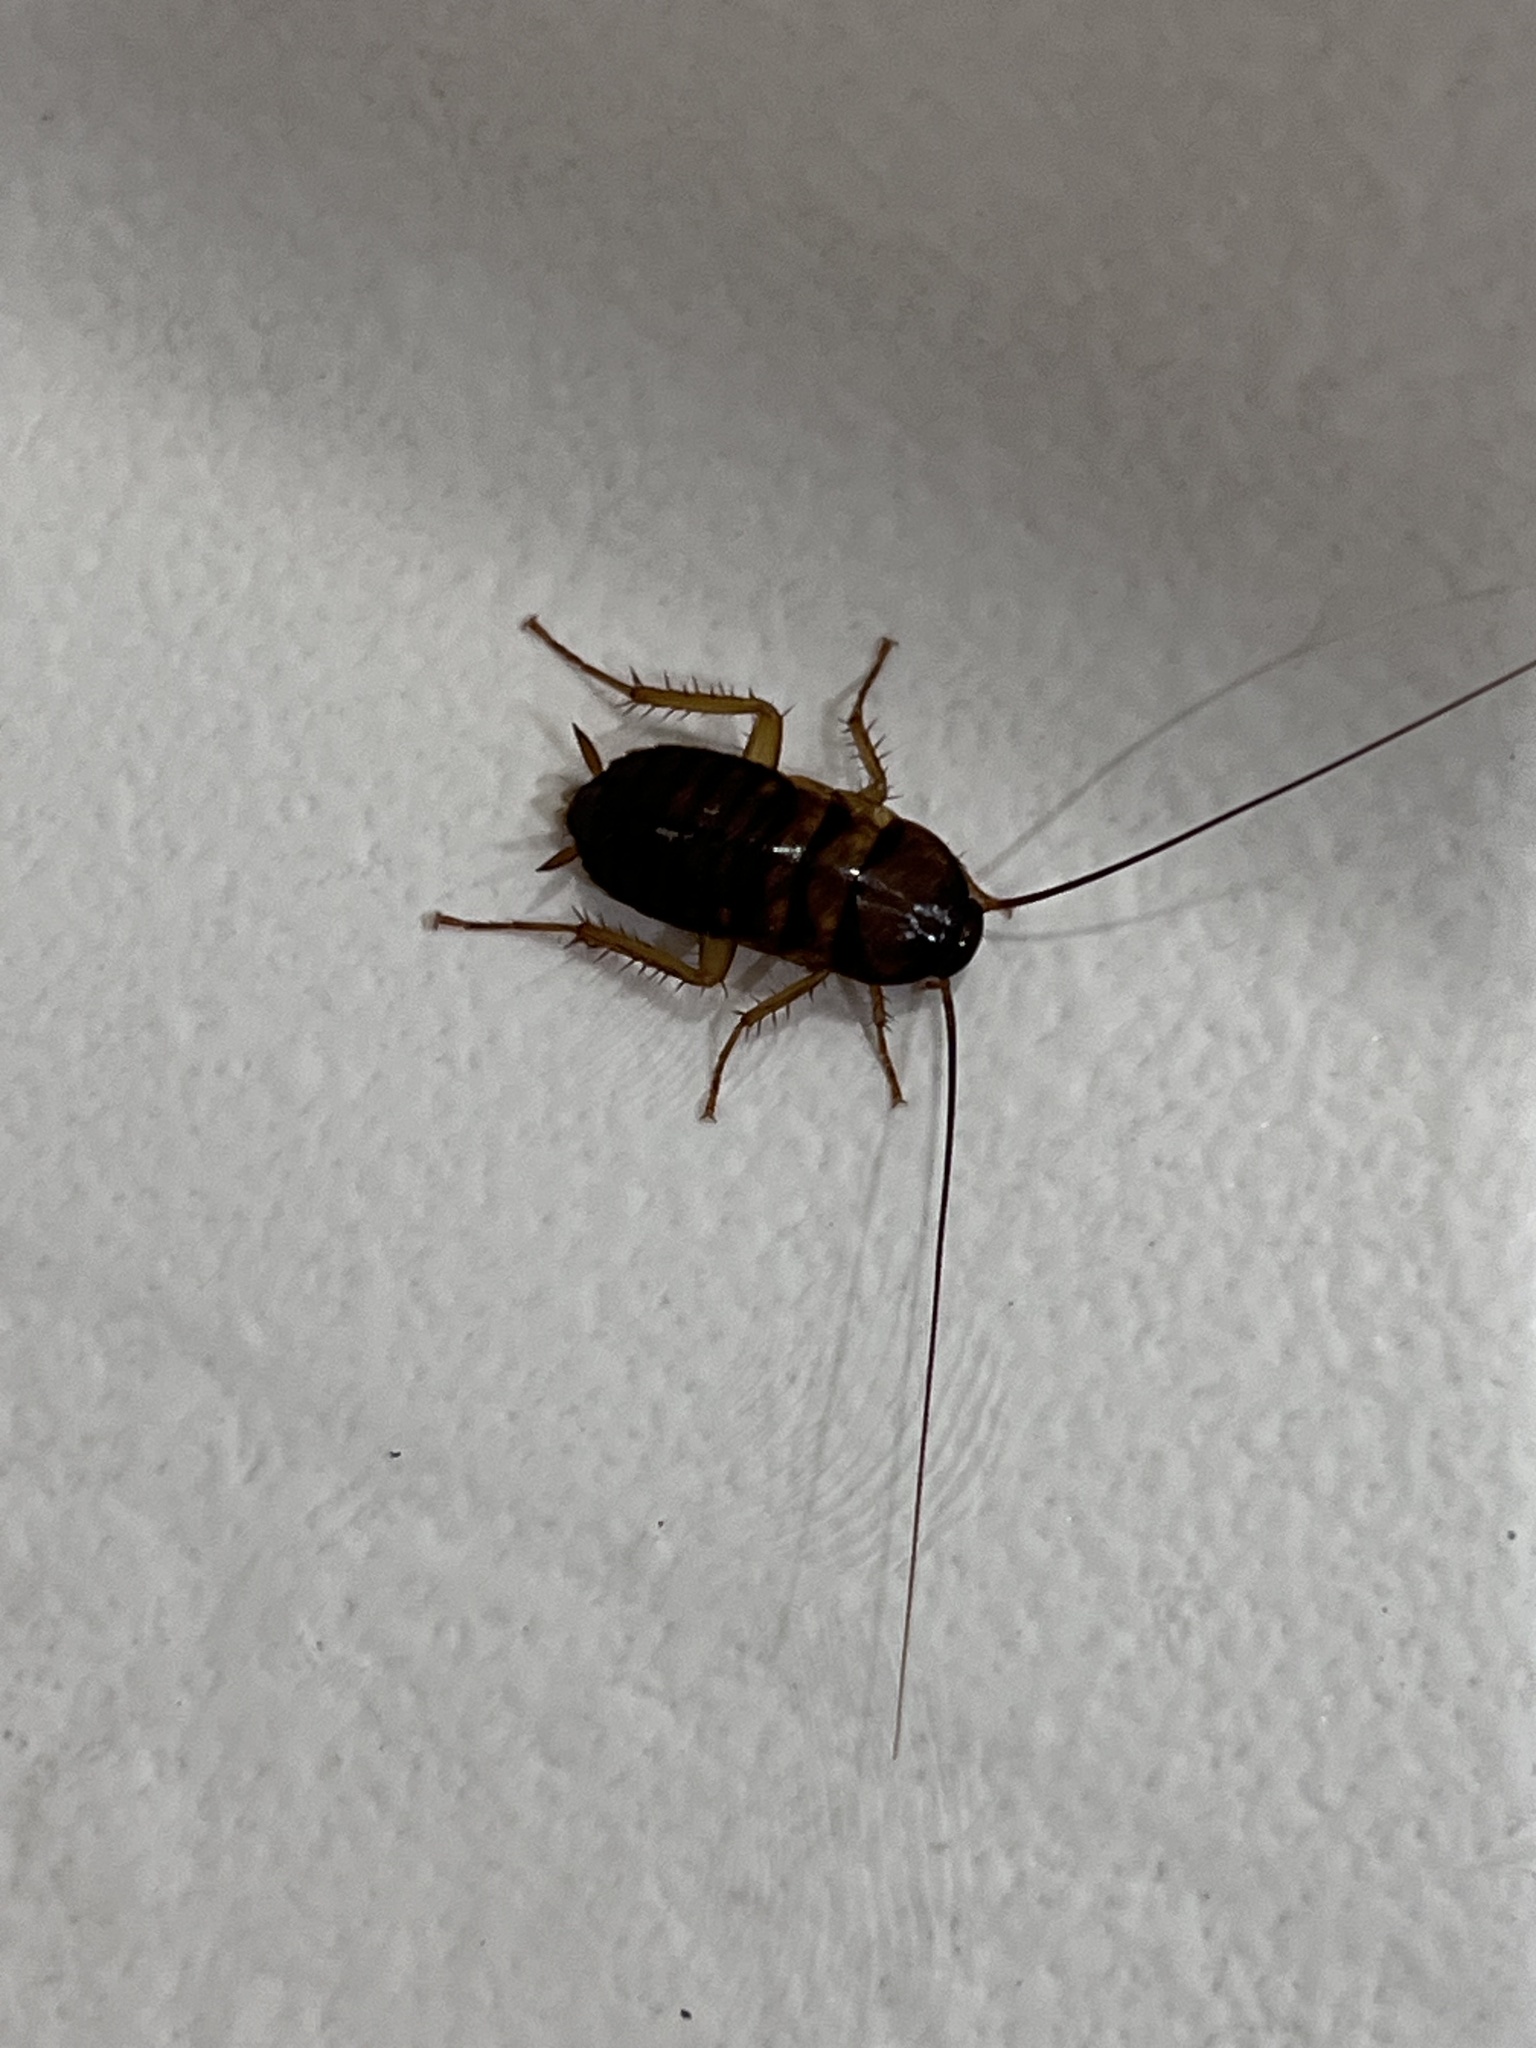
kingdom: Animalia
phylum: Arthropoda
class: Insecta
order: Blattodea
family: Blattidae
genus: Periplaneta
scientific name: Periplaneta americana
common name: American cockroach
